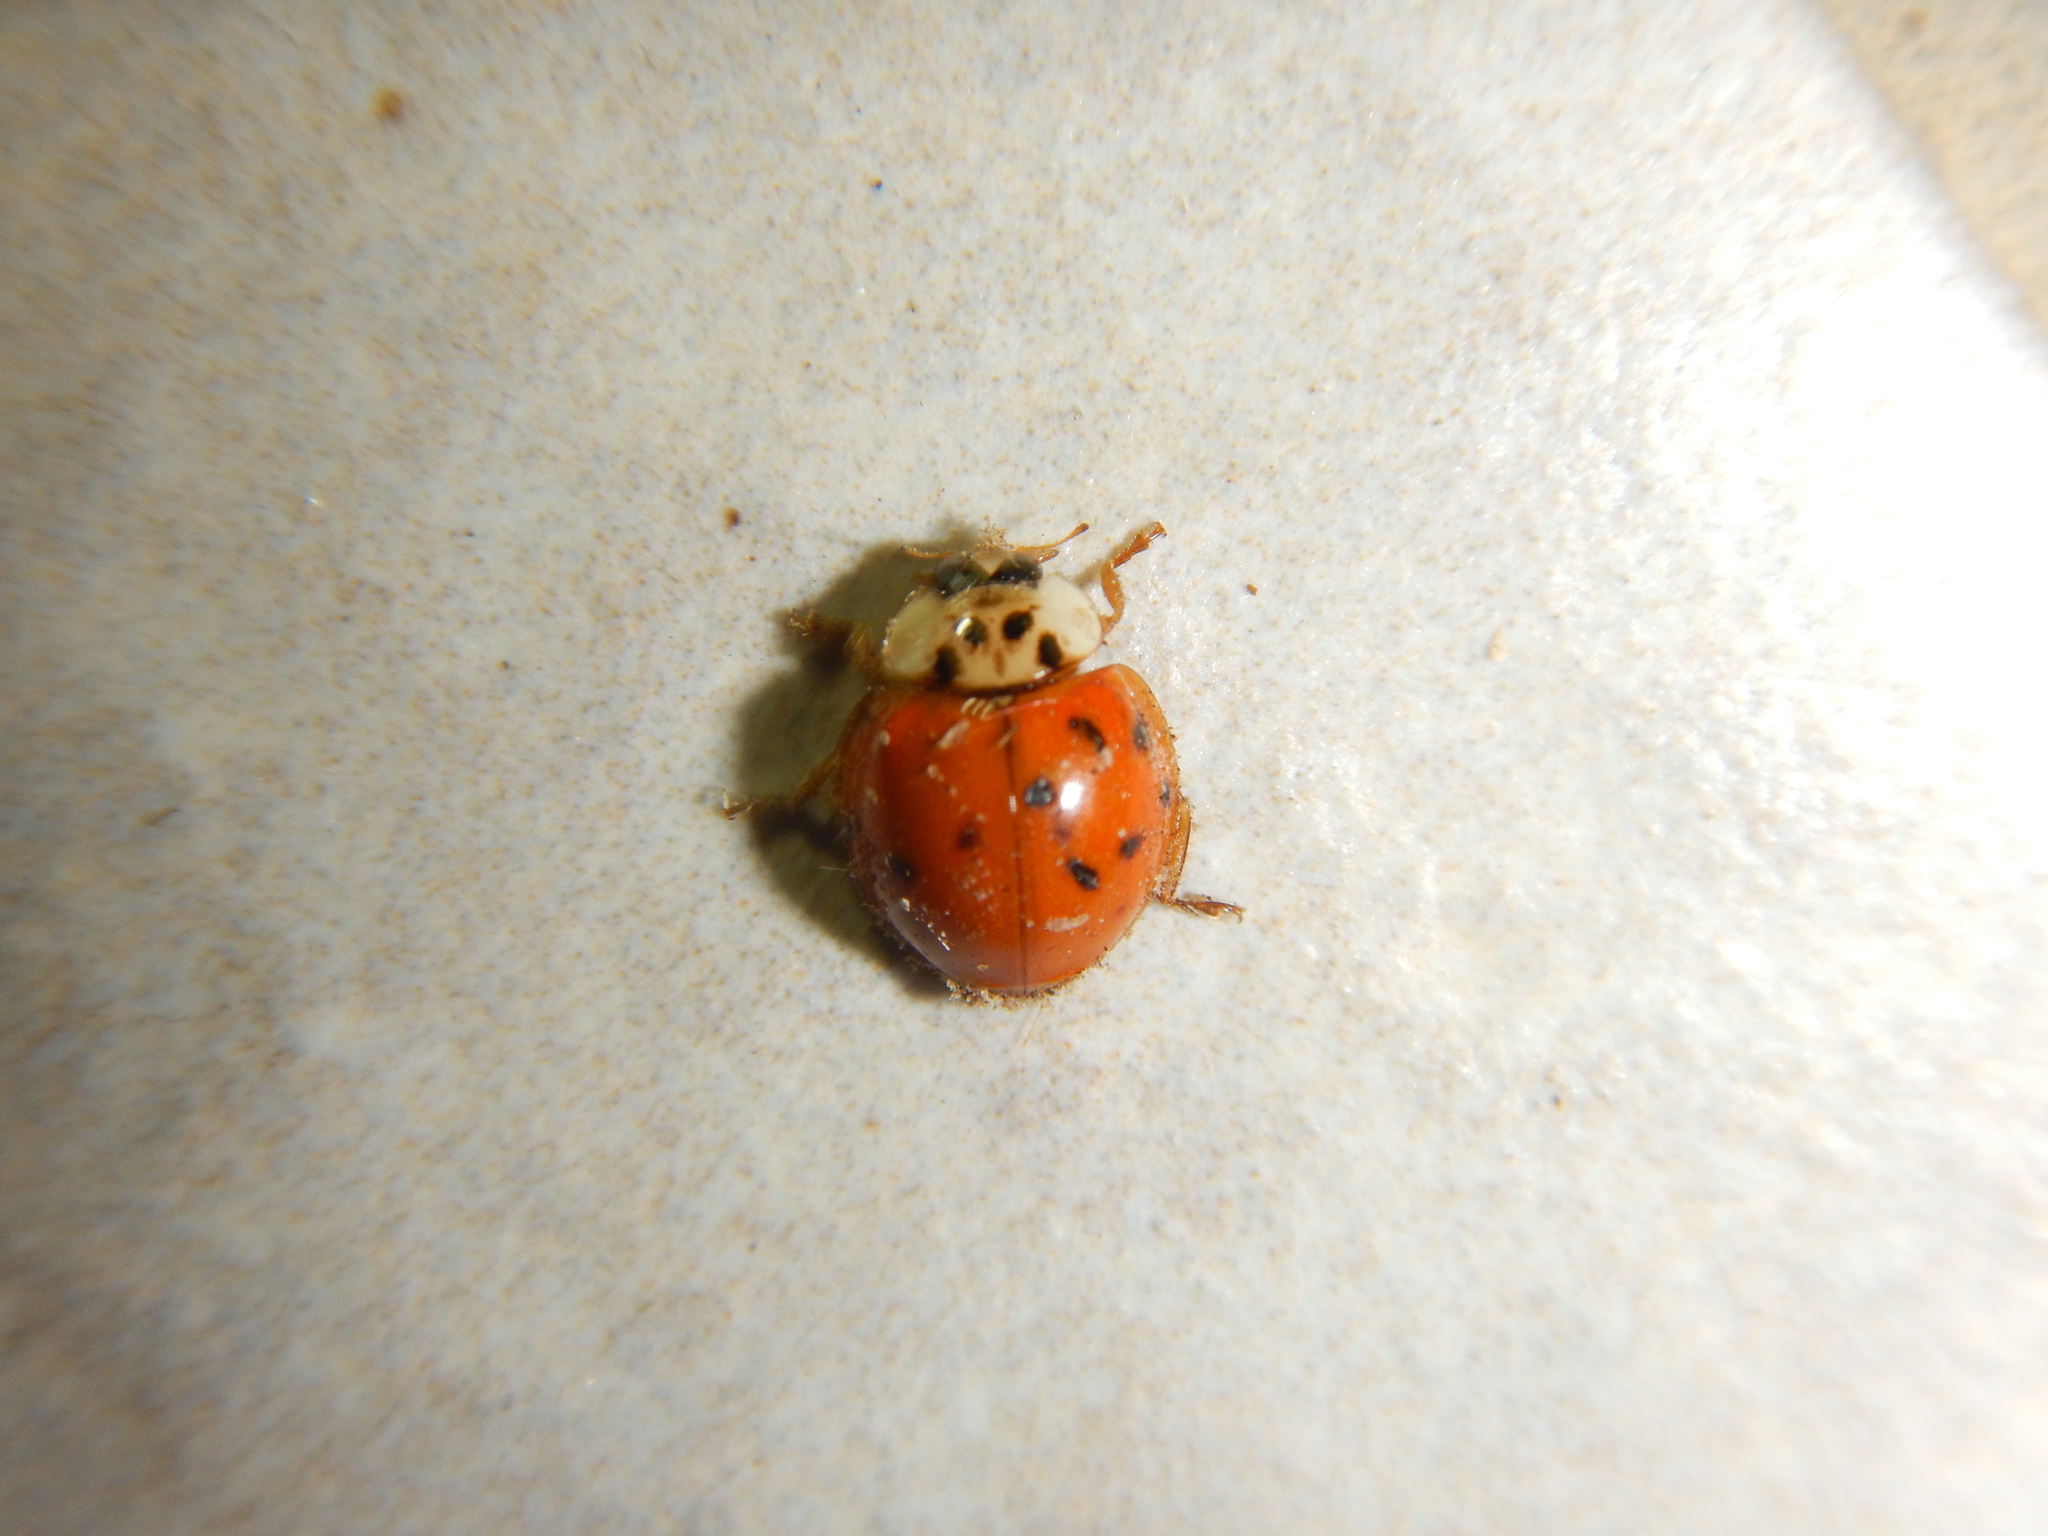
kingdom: Animalia
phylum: Arthropoda
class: Insecta
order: Coleoptera
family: Coccinellidae
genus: Harmonia
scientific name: Harmonia axyridis
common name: Harlequin ladybird
